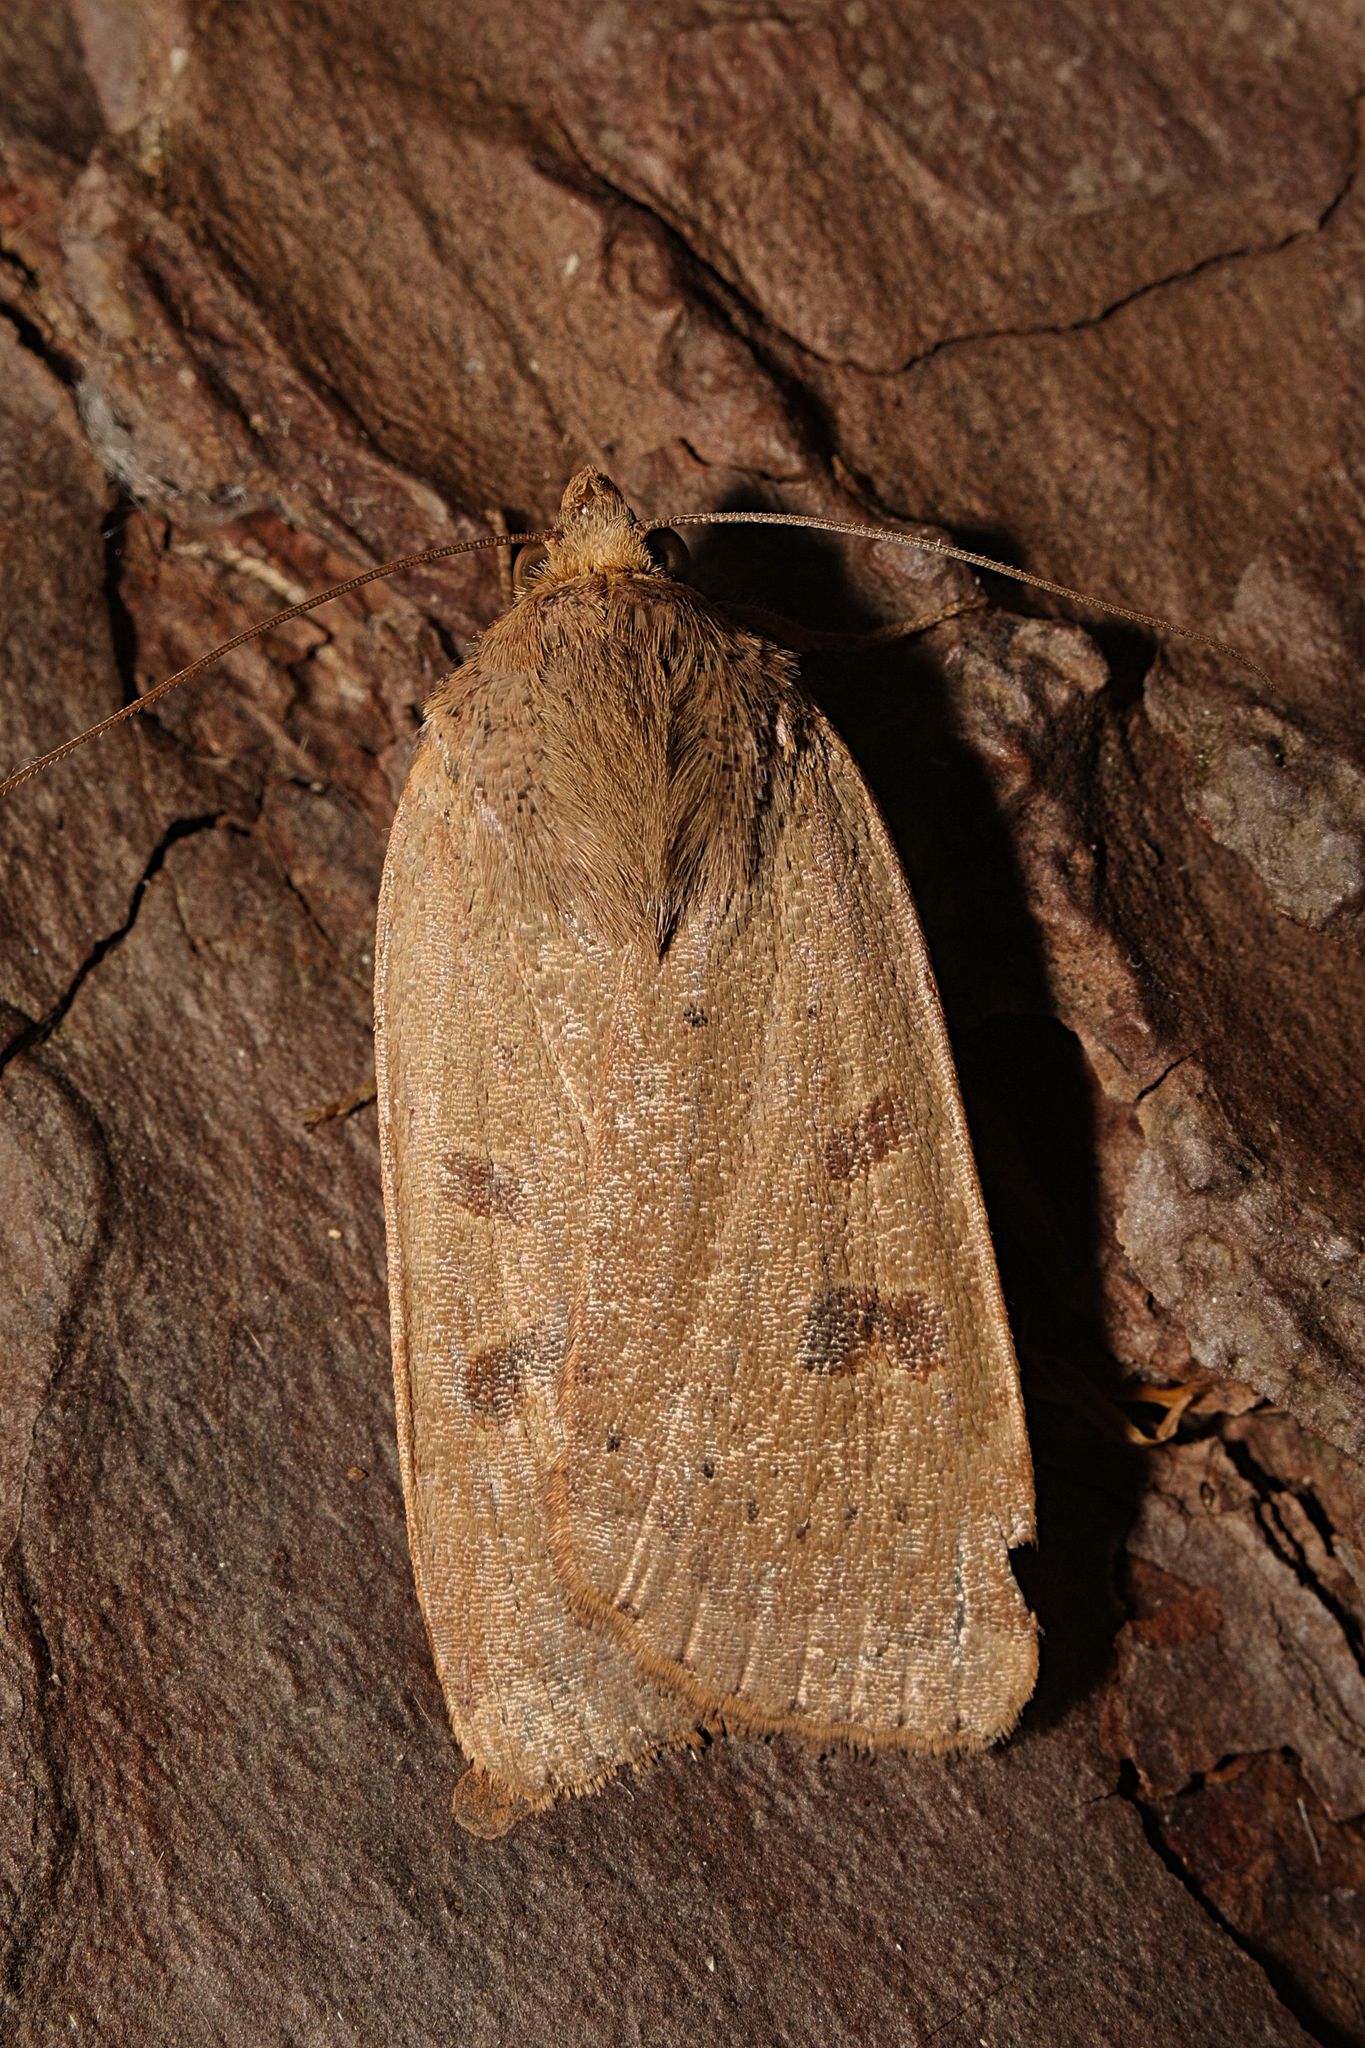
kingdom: Animalia
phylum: Arthropoda
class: Insecta
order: Lepidoptera
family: Noctuidae
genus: Noctua
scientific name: Noctua comes
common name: Lesser yellow underwing
